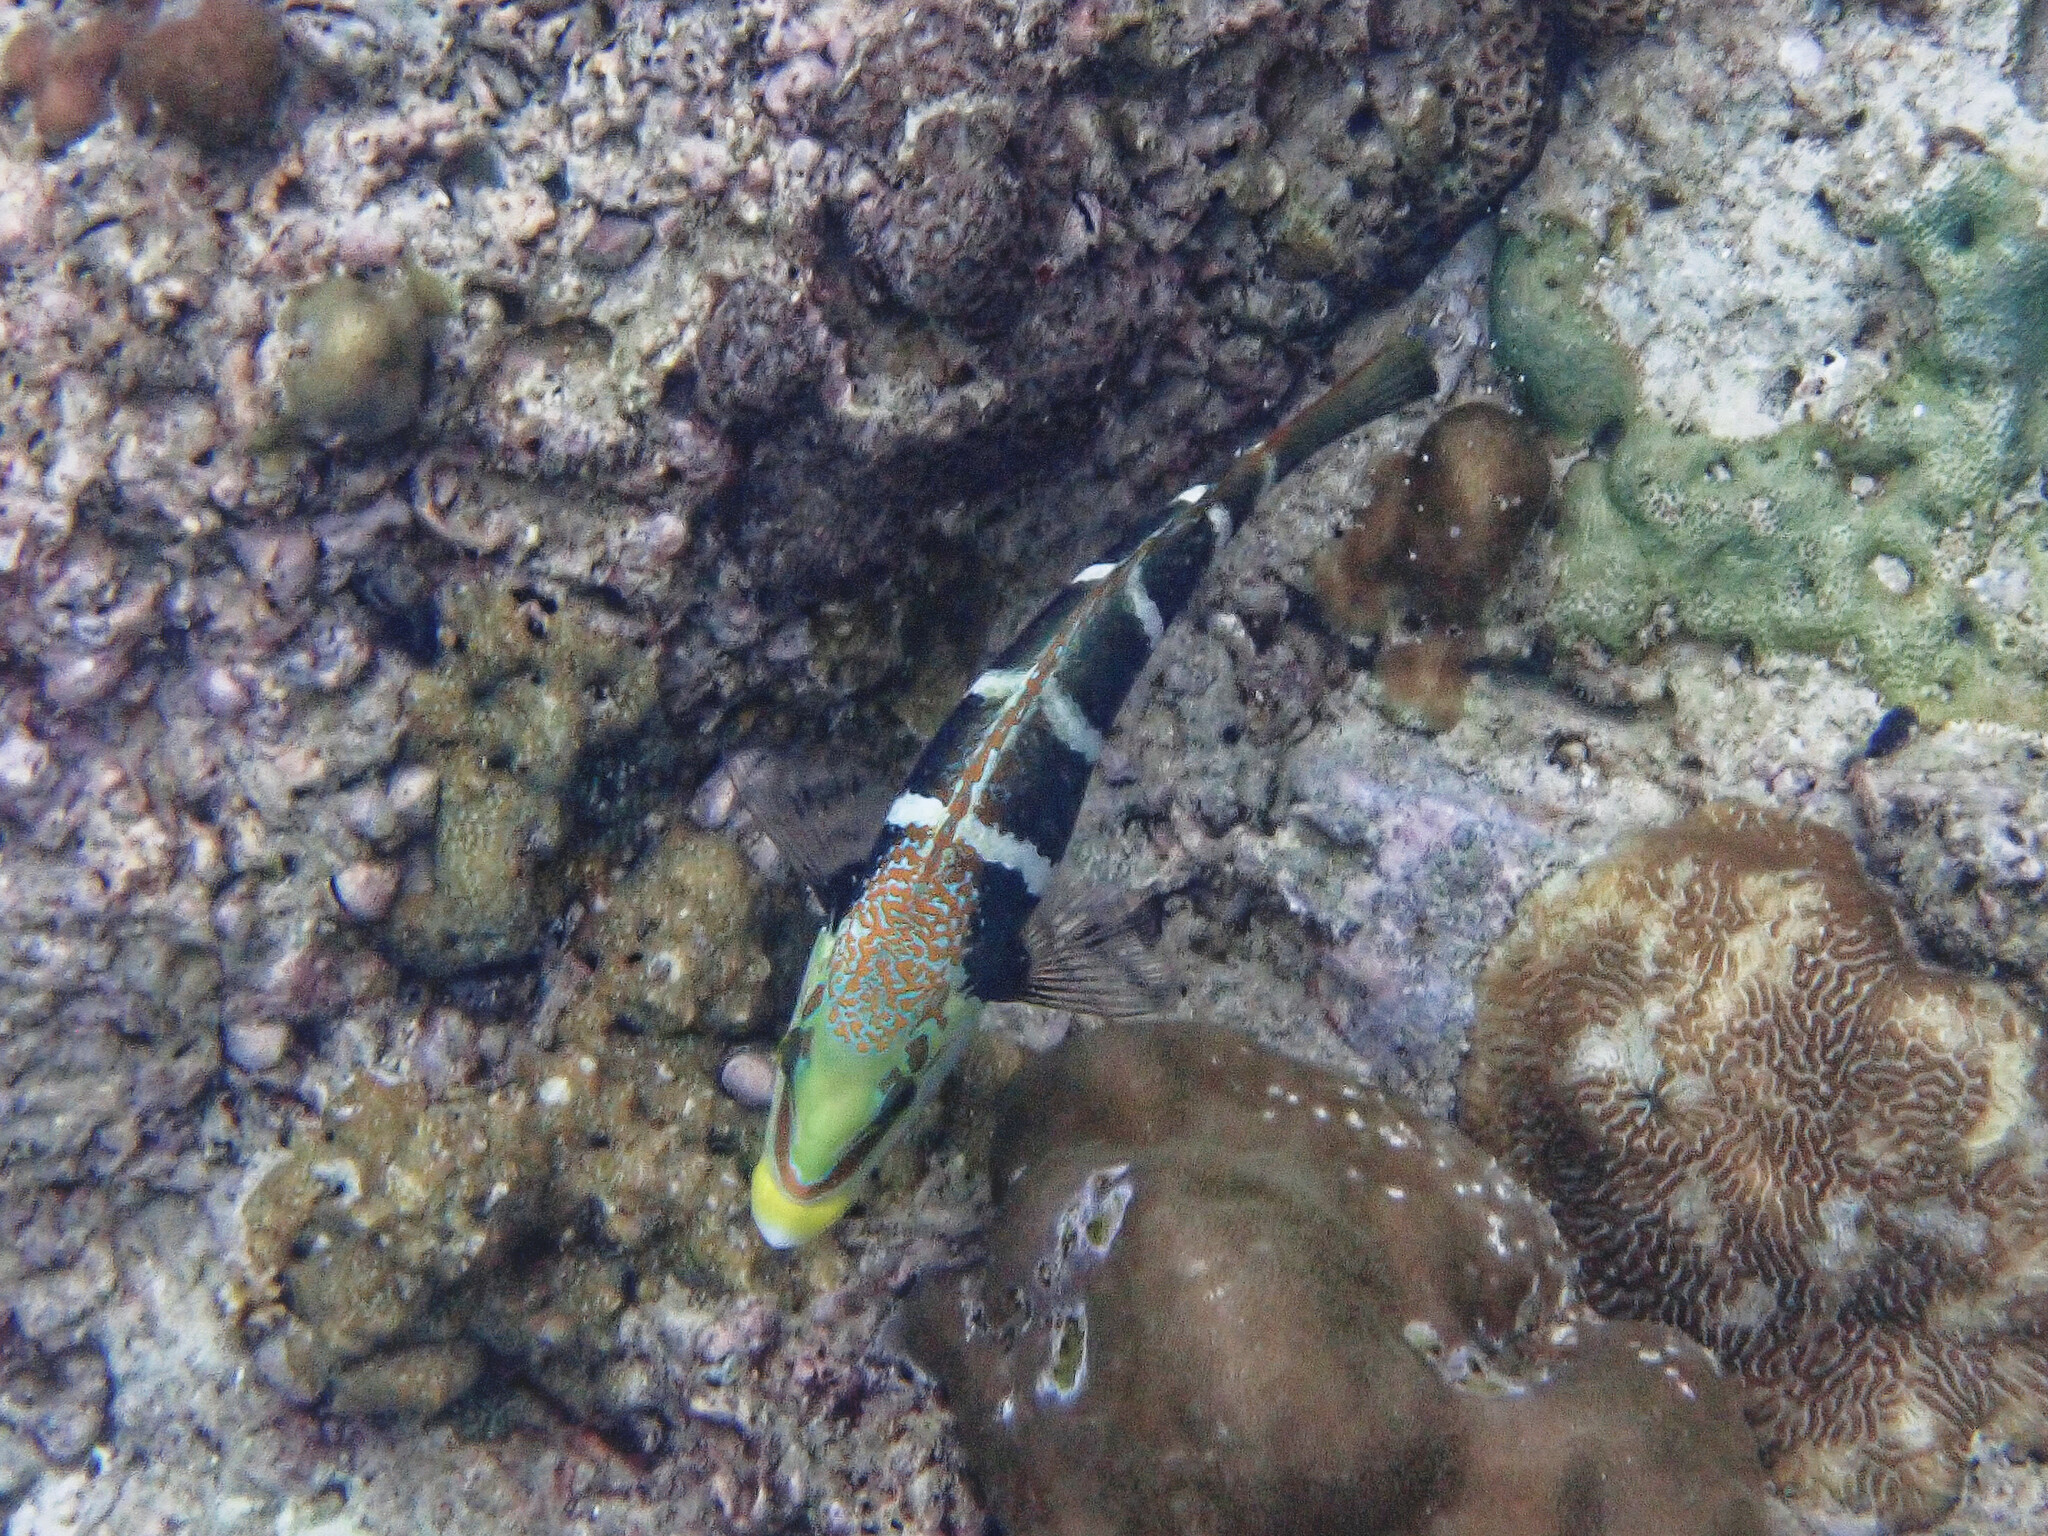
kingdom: Animalia
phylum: Chordata
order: Perciformes
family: Labridae
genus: Hemigymnus
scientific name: Hemigymnus fasciatus
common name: Barred thicklip
